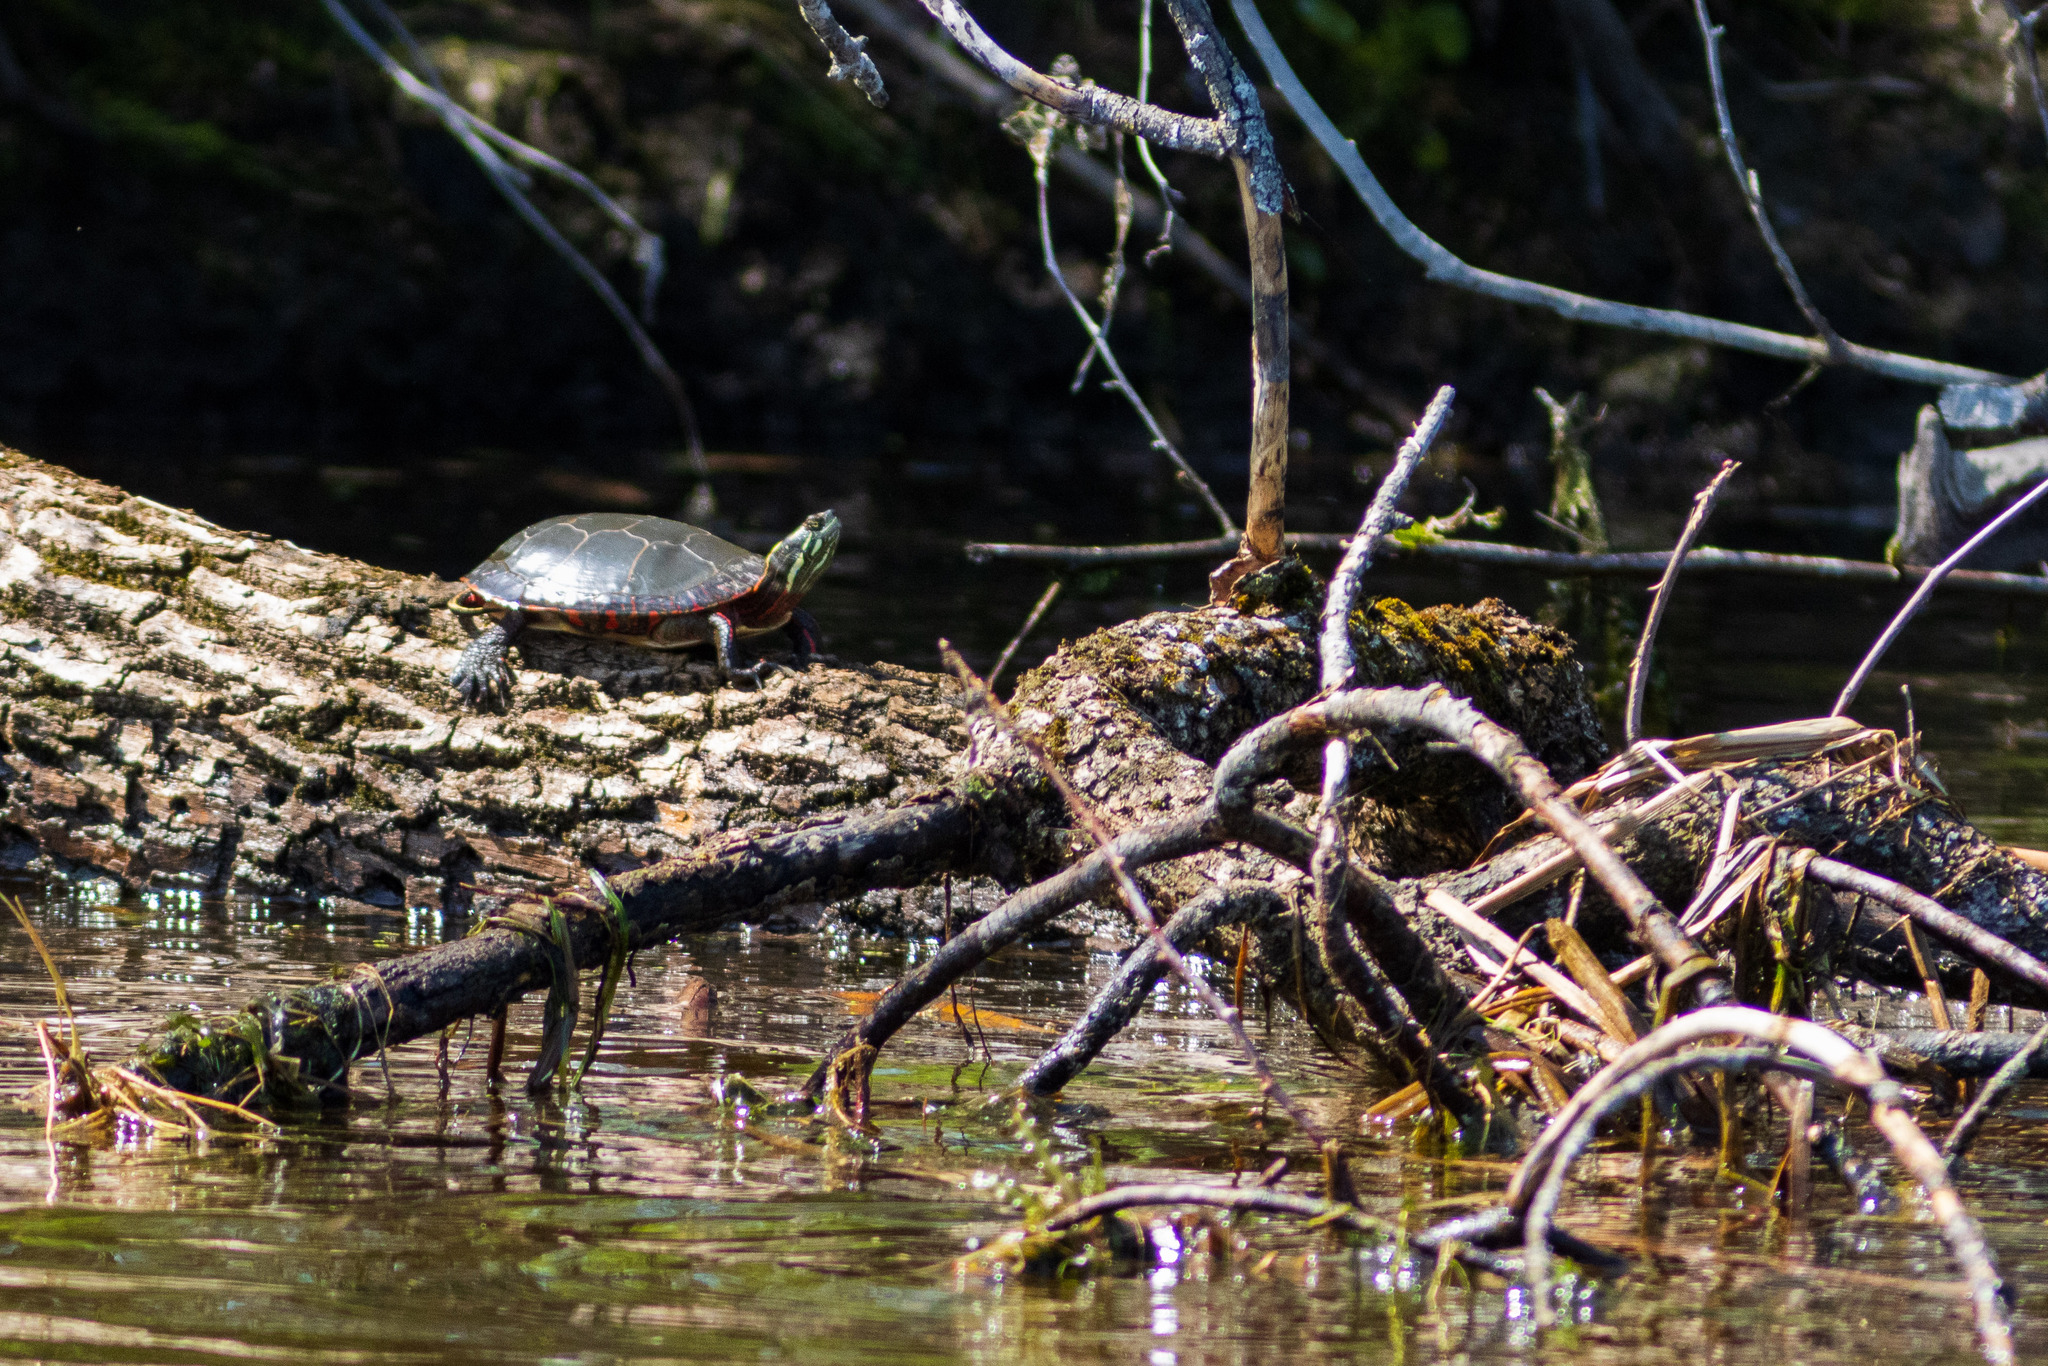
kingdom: Animalia
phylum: Chordata
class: Testudines
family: Emydidae
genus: Chrysemys
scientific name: Chrysemys picta
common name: Painted turtle
